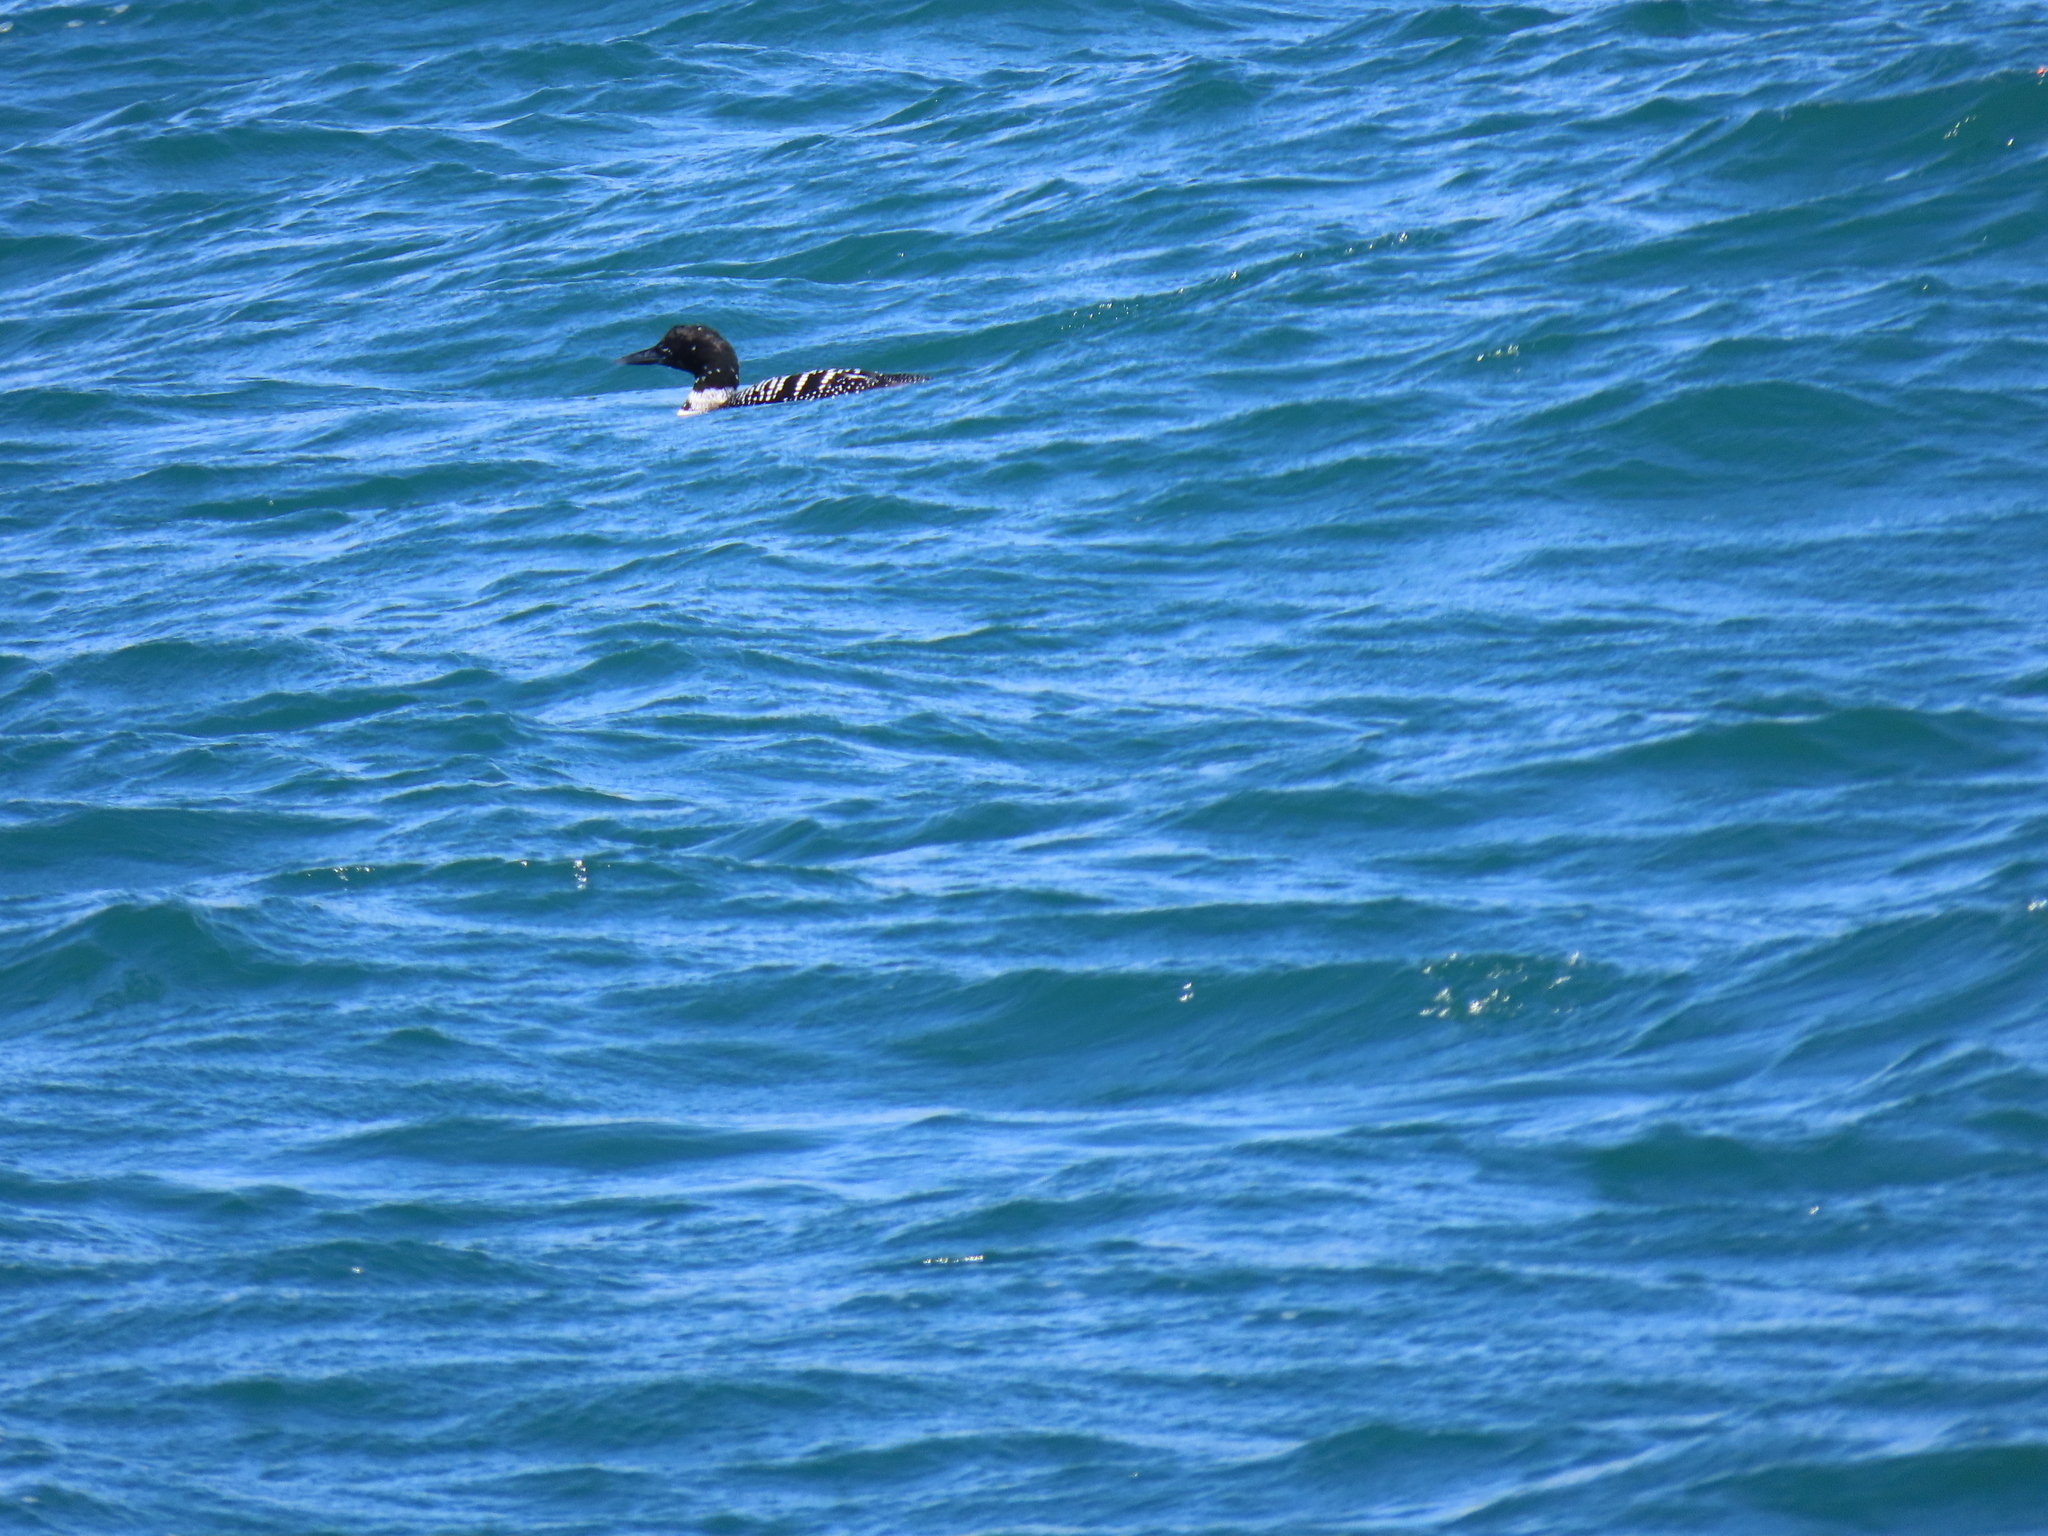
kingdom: Animalia
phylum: Chordata
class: Aves
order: Gaviiformes
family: Gaviidae
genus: Gavia
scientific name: Gavia immer
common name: Common loon
